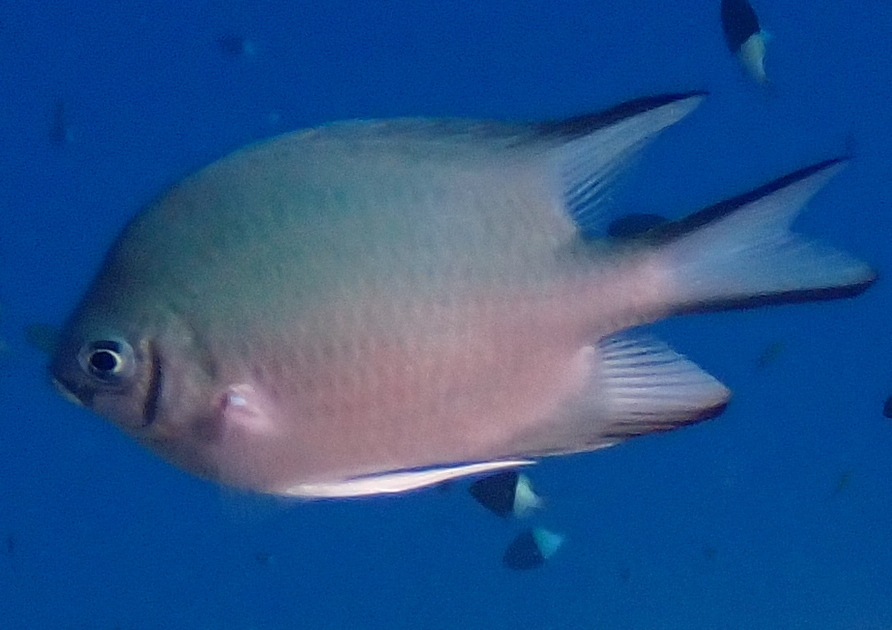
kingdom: Animalia
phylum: Chordata
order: Perciformes
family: Pomacentridae
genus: Amblyglyphidodon
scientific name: Amblyglyphidodon indicus
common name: Maldives damselfish
